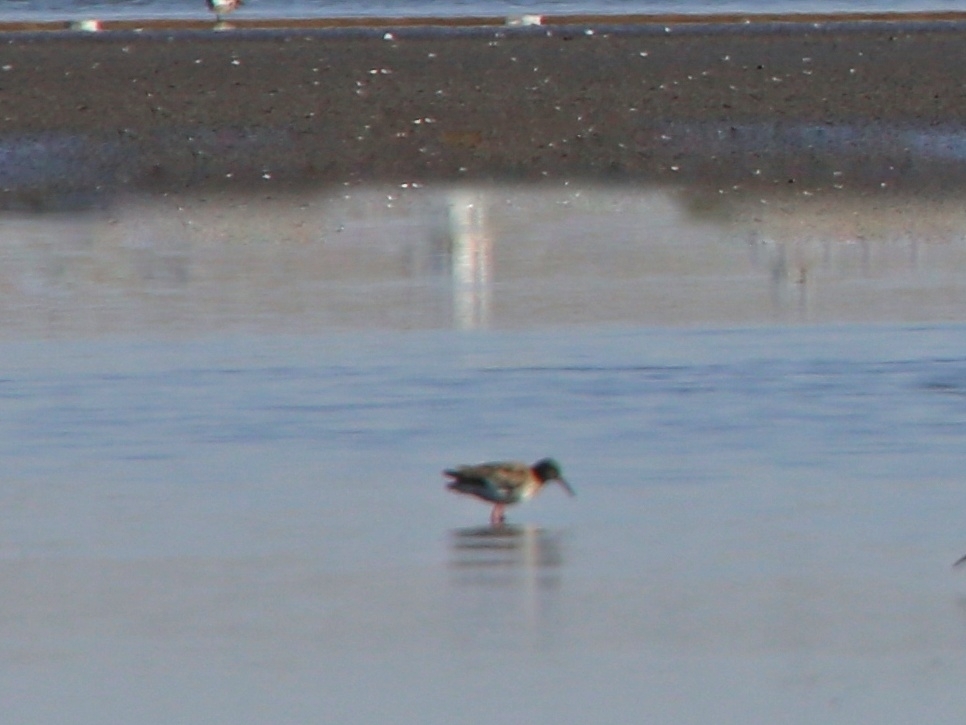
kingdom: Animalia
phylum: Chordata
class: Aves
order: Charadriiformes
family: Scolopacidae
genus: Tringa
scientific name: Tringa totanus
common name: Common redshank
